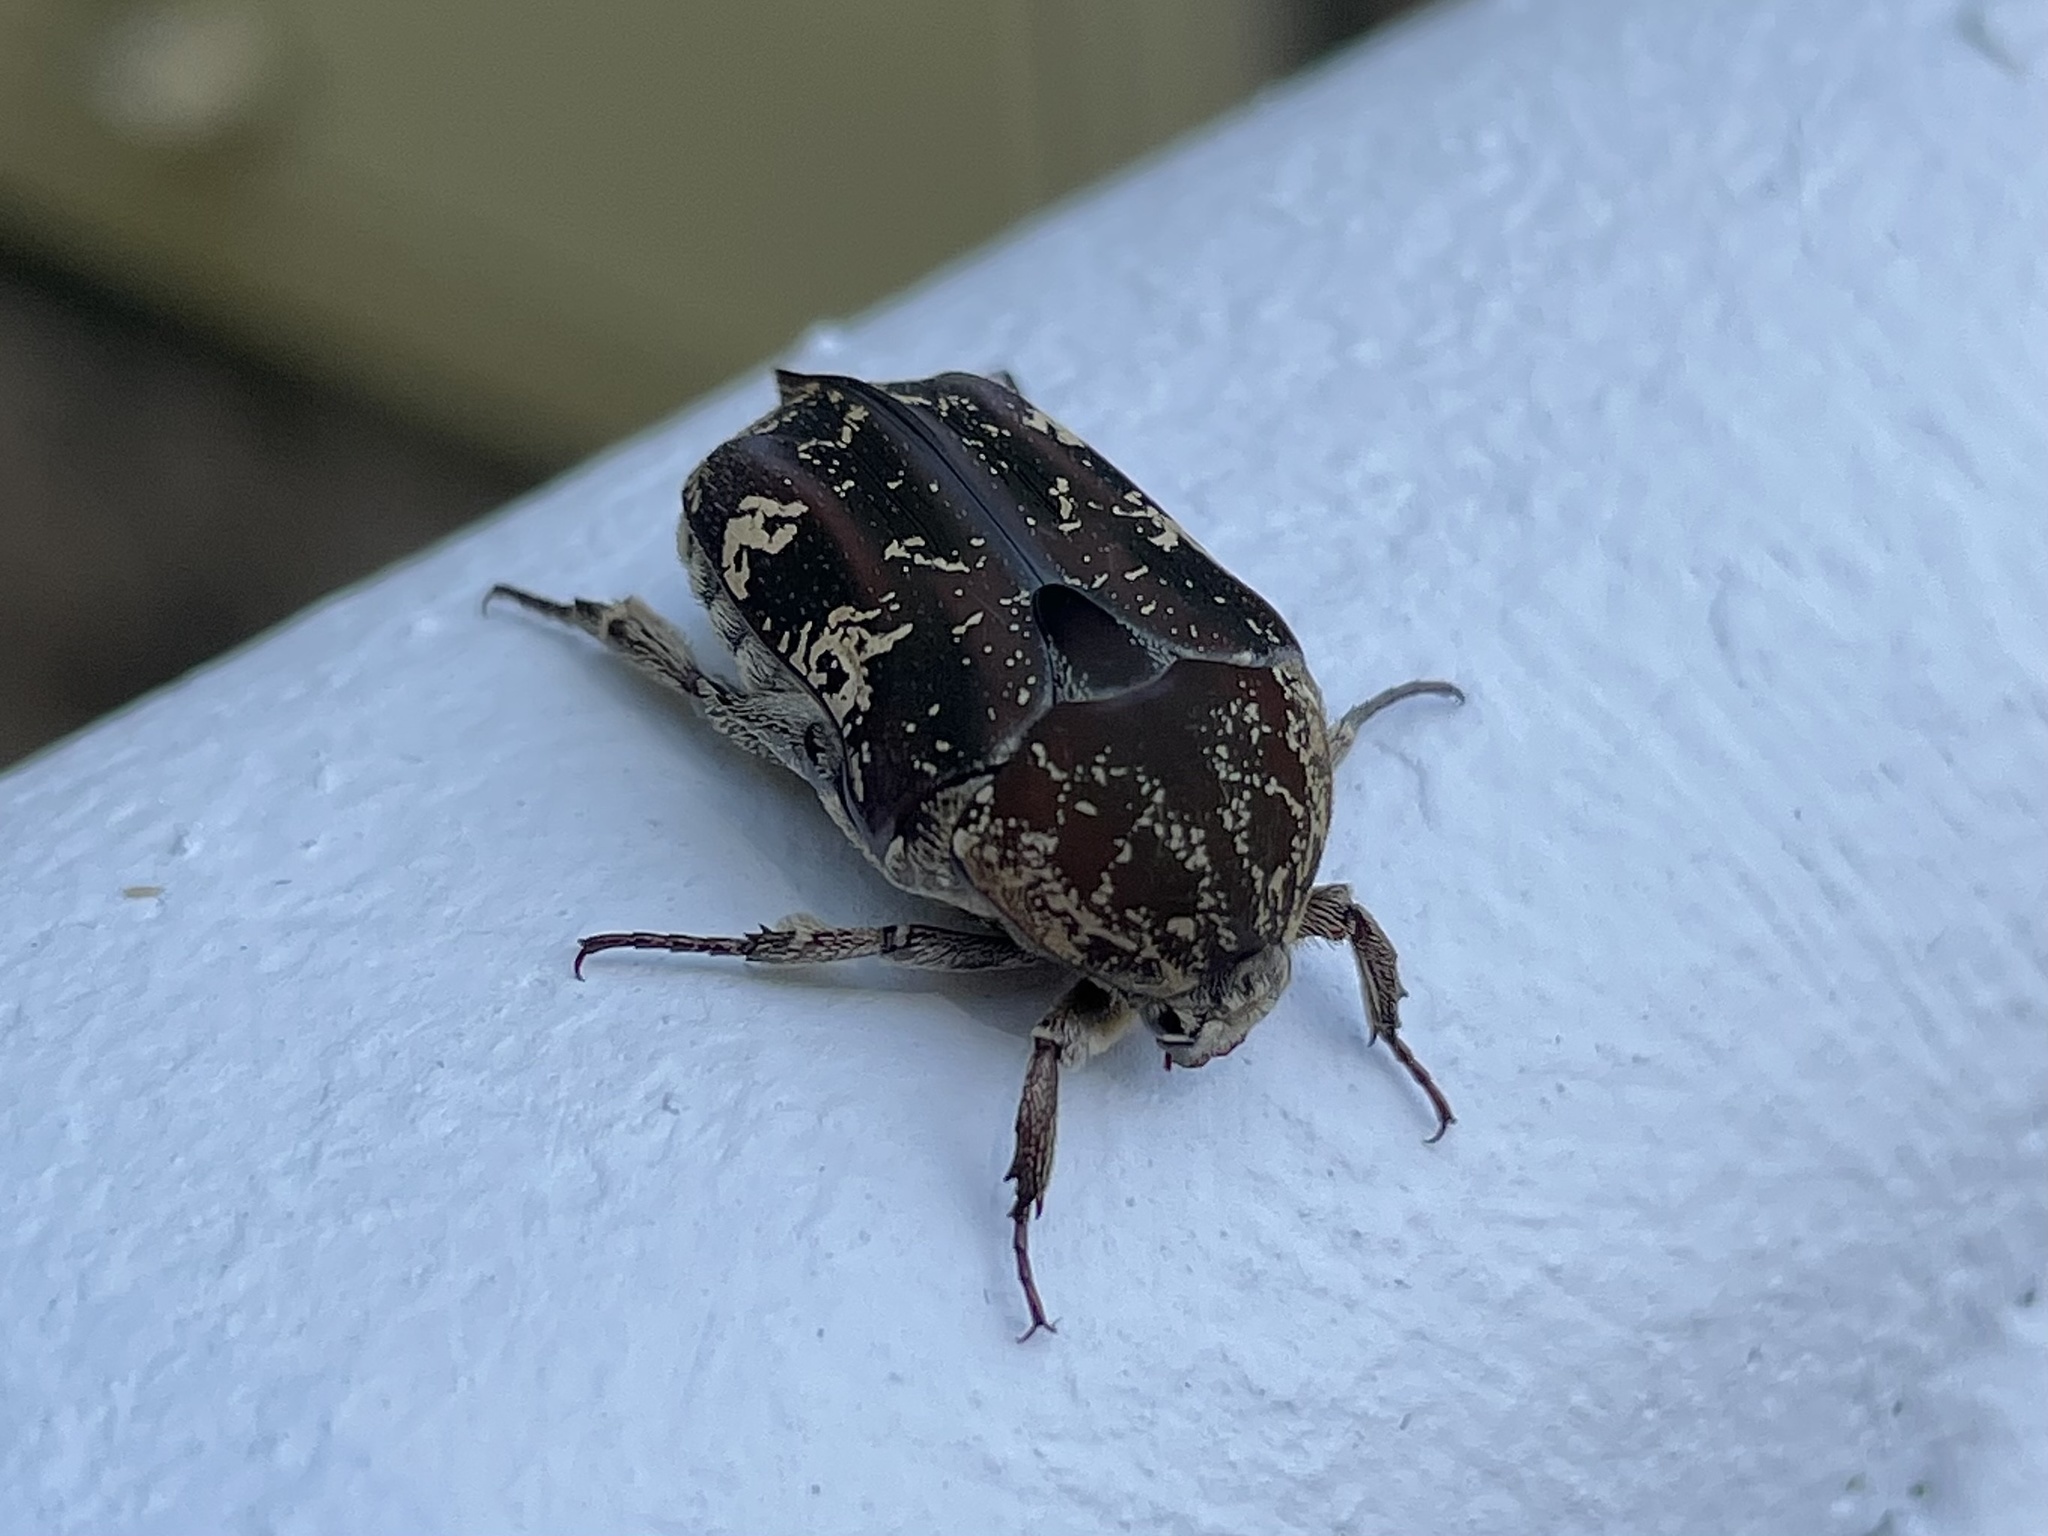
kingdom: Animalia
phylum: Arthropoda
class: Insecta
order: Coleoptera
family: Scarabaeidae
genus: Protaetia
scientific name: Protaetia fusca
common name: Mango flower beetle
